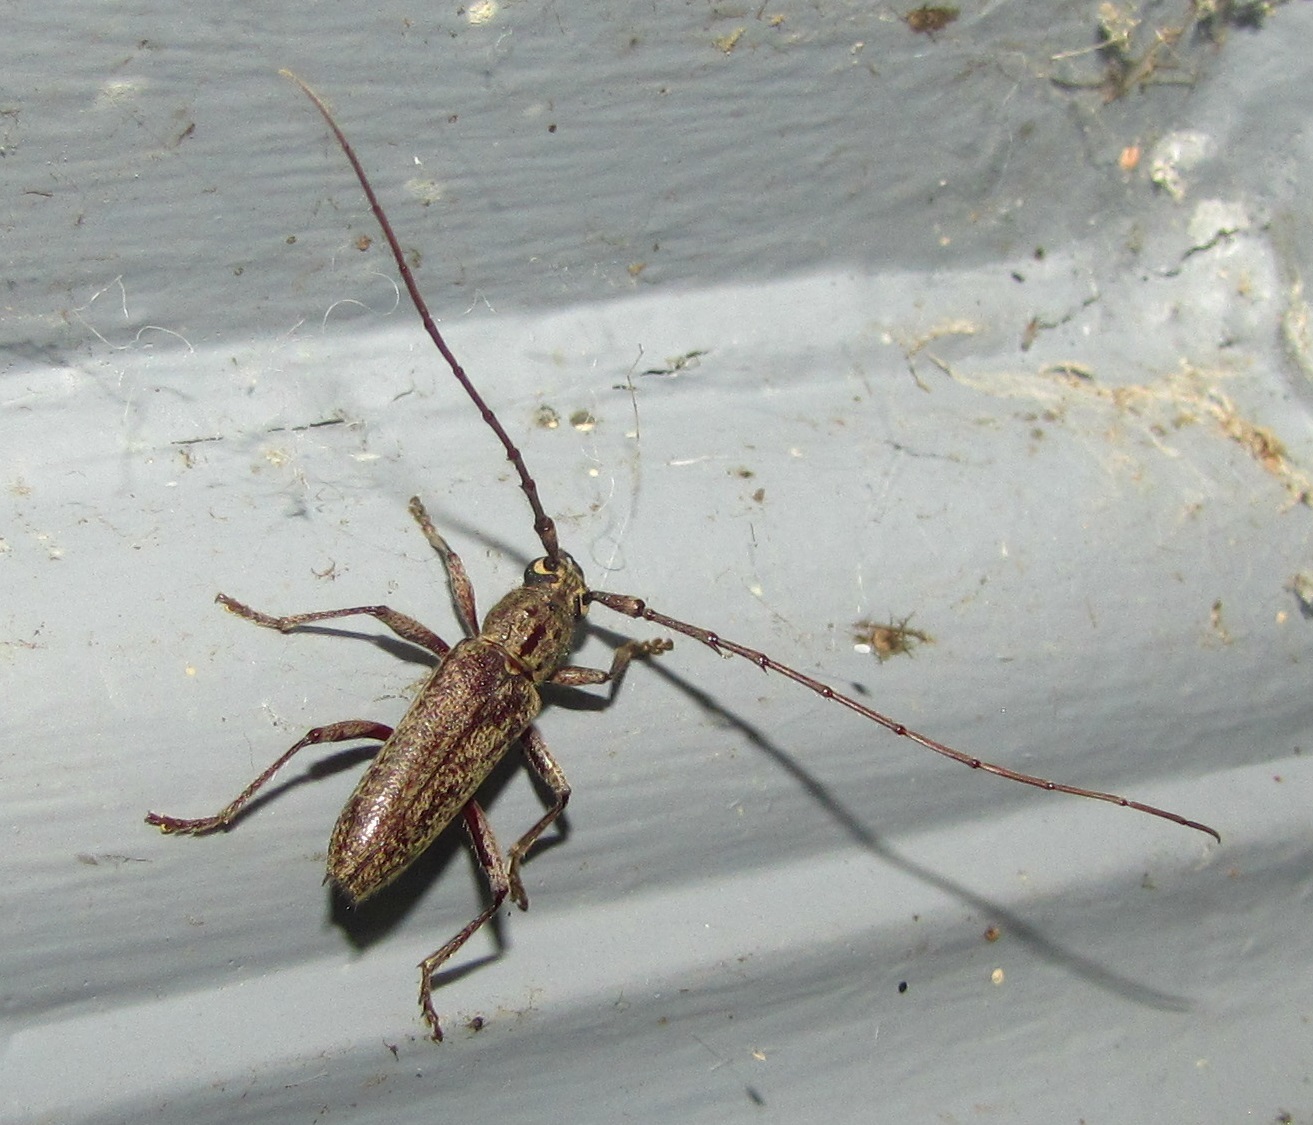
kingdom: Animalia
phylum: Arthropoda
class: Insecta
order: Coleoptera
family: Cerambycidae
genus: Elaphidion
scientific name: Elaphidion mucronatum
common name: Spined oak borer
